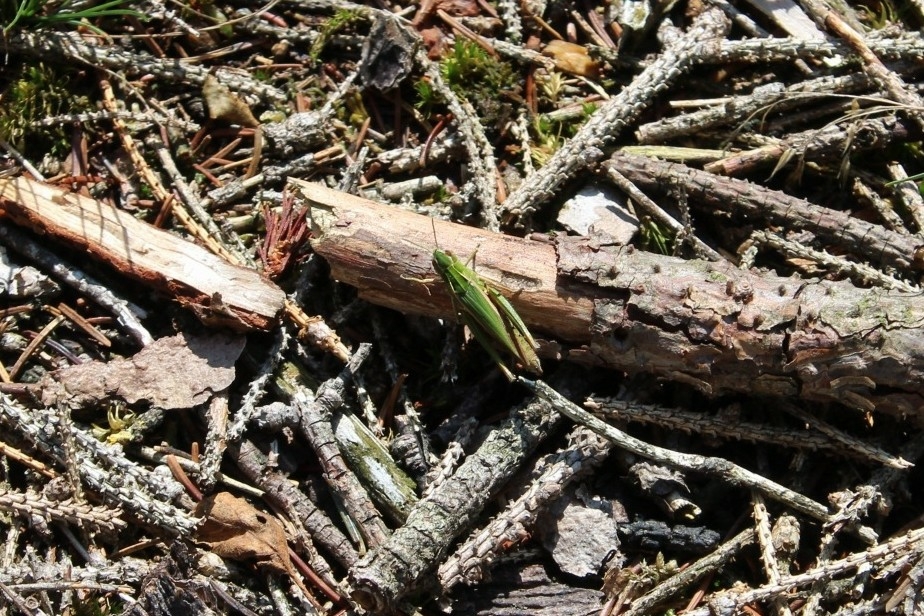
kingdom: Animalia
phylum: Arthropoda
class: Insecta
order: Orthoptera
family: Acrididae
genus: Omocestus
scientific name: Omocestus viridulus
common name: Common green grasshopper
